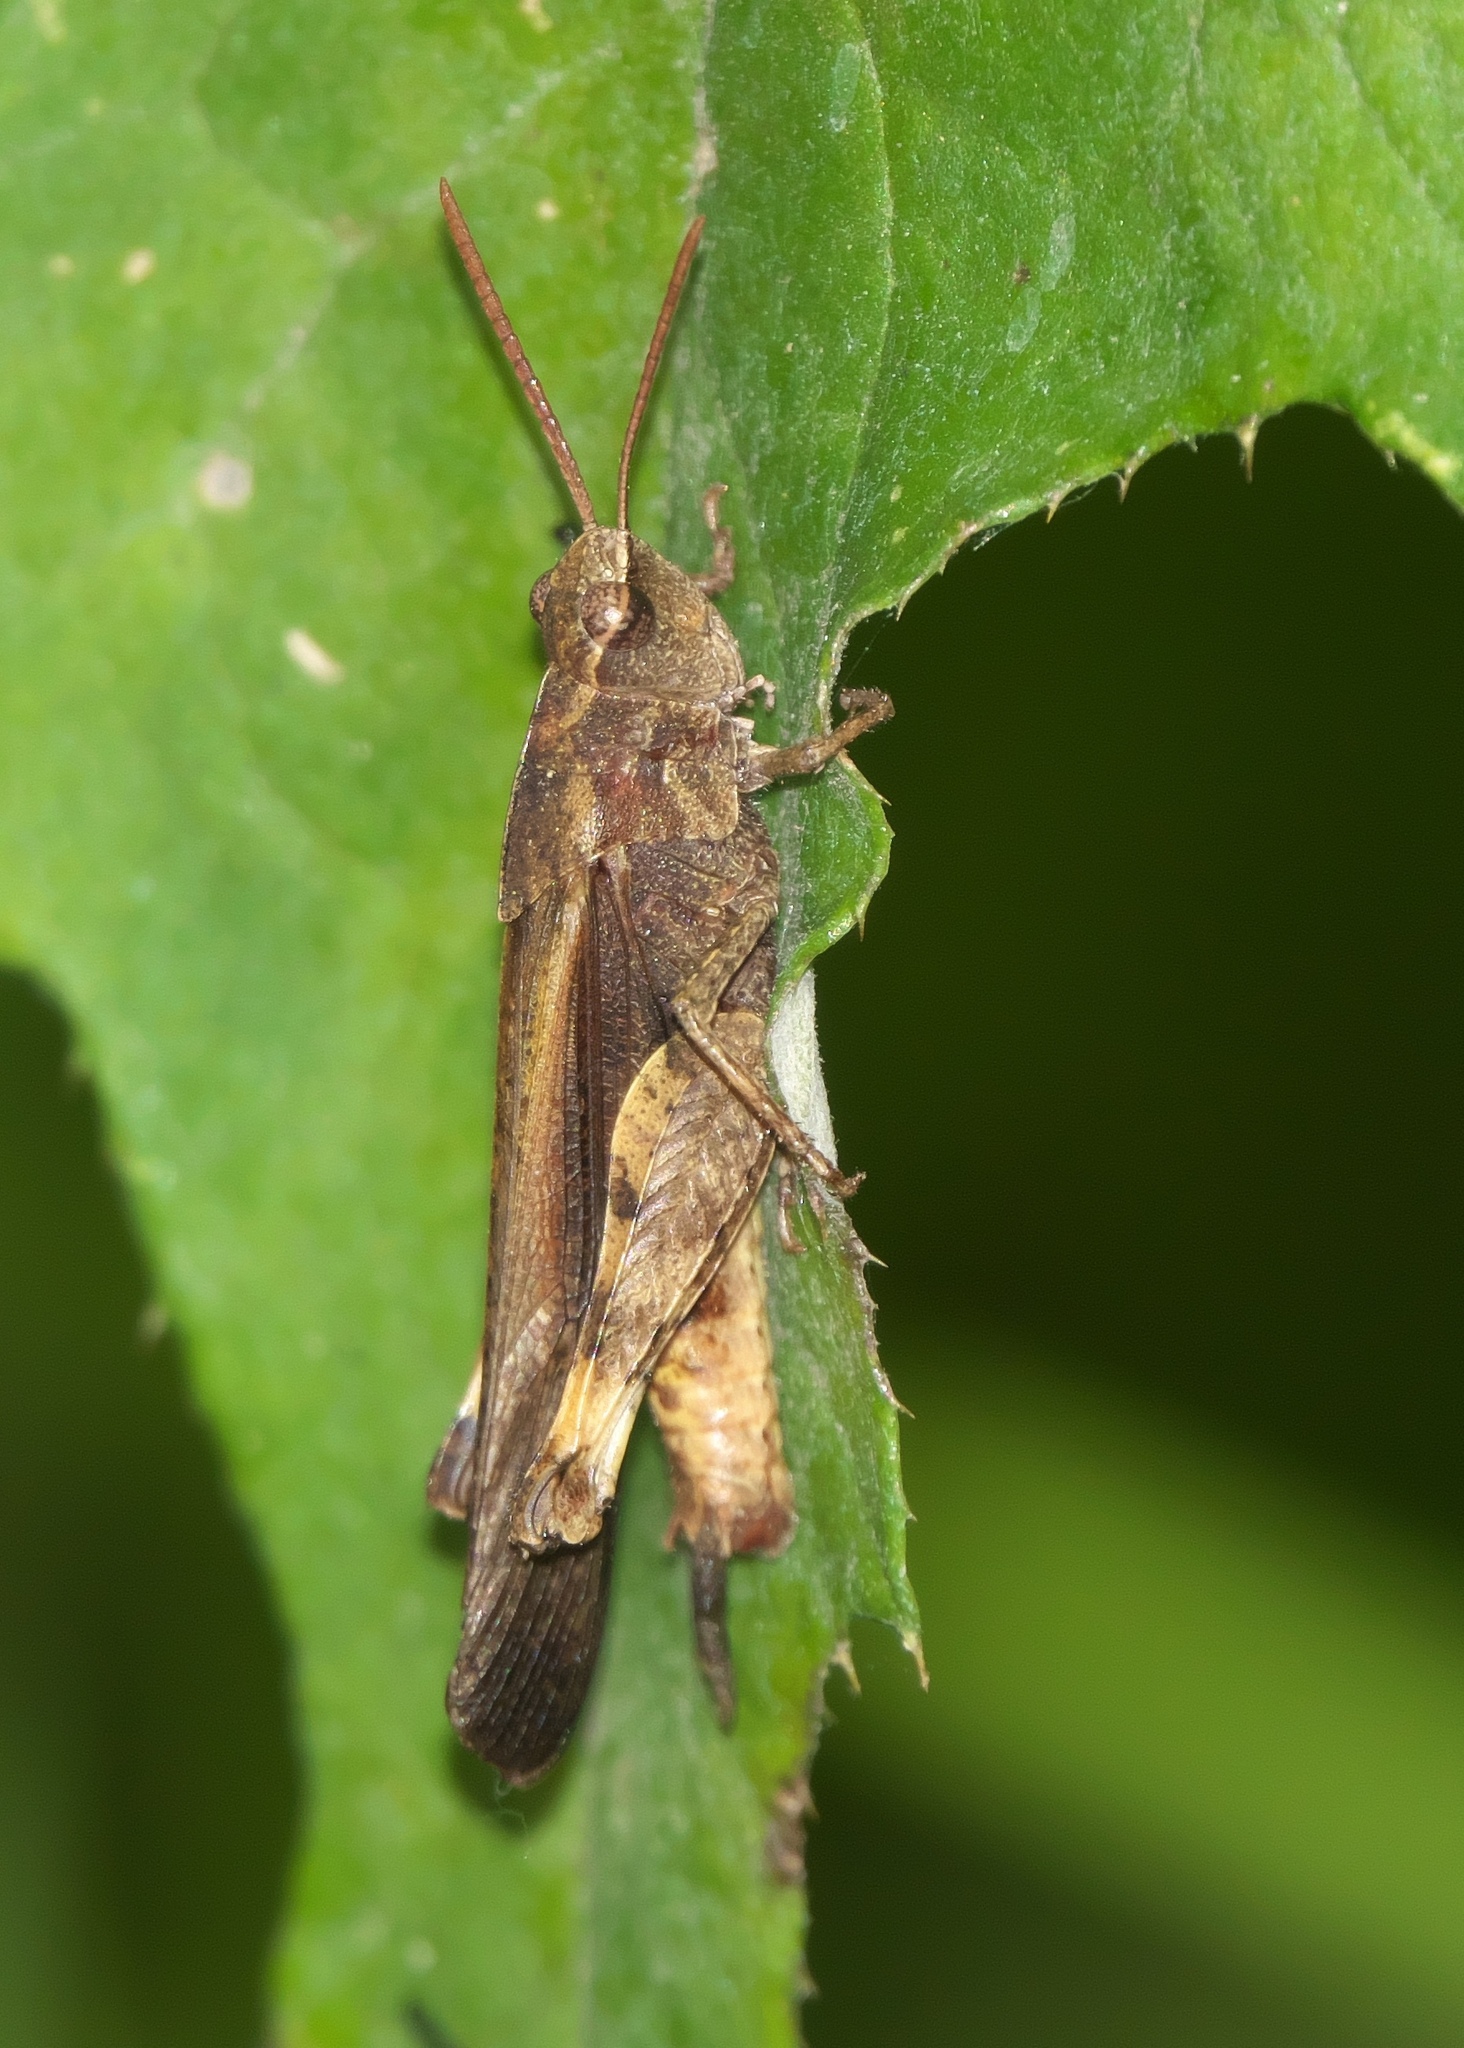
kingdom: Animalia
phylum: Arthropoda
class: Insecta
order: Orthoptera
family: Acrididae
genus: Chortophaga
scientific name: Chortophaga viridifasciata
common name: Green-striped grasshopper
